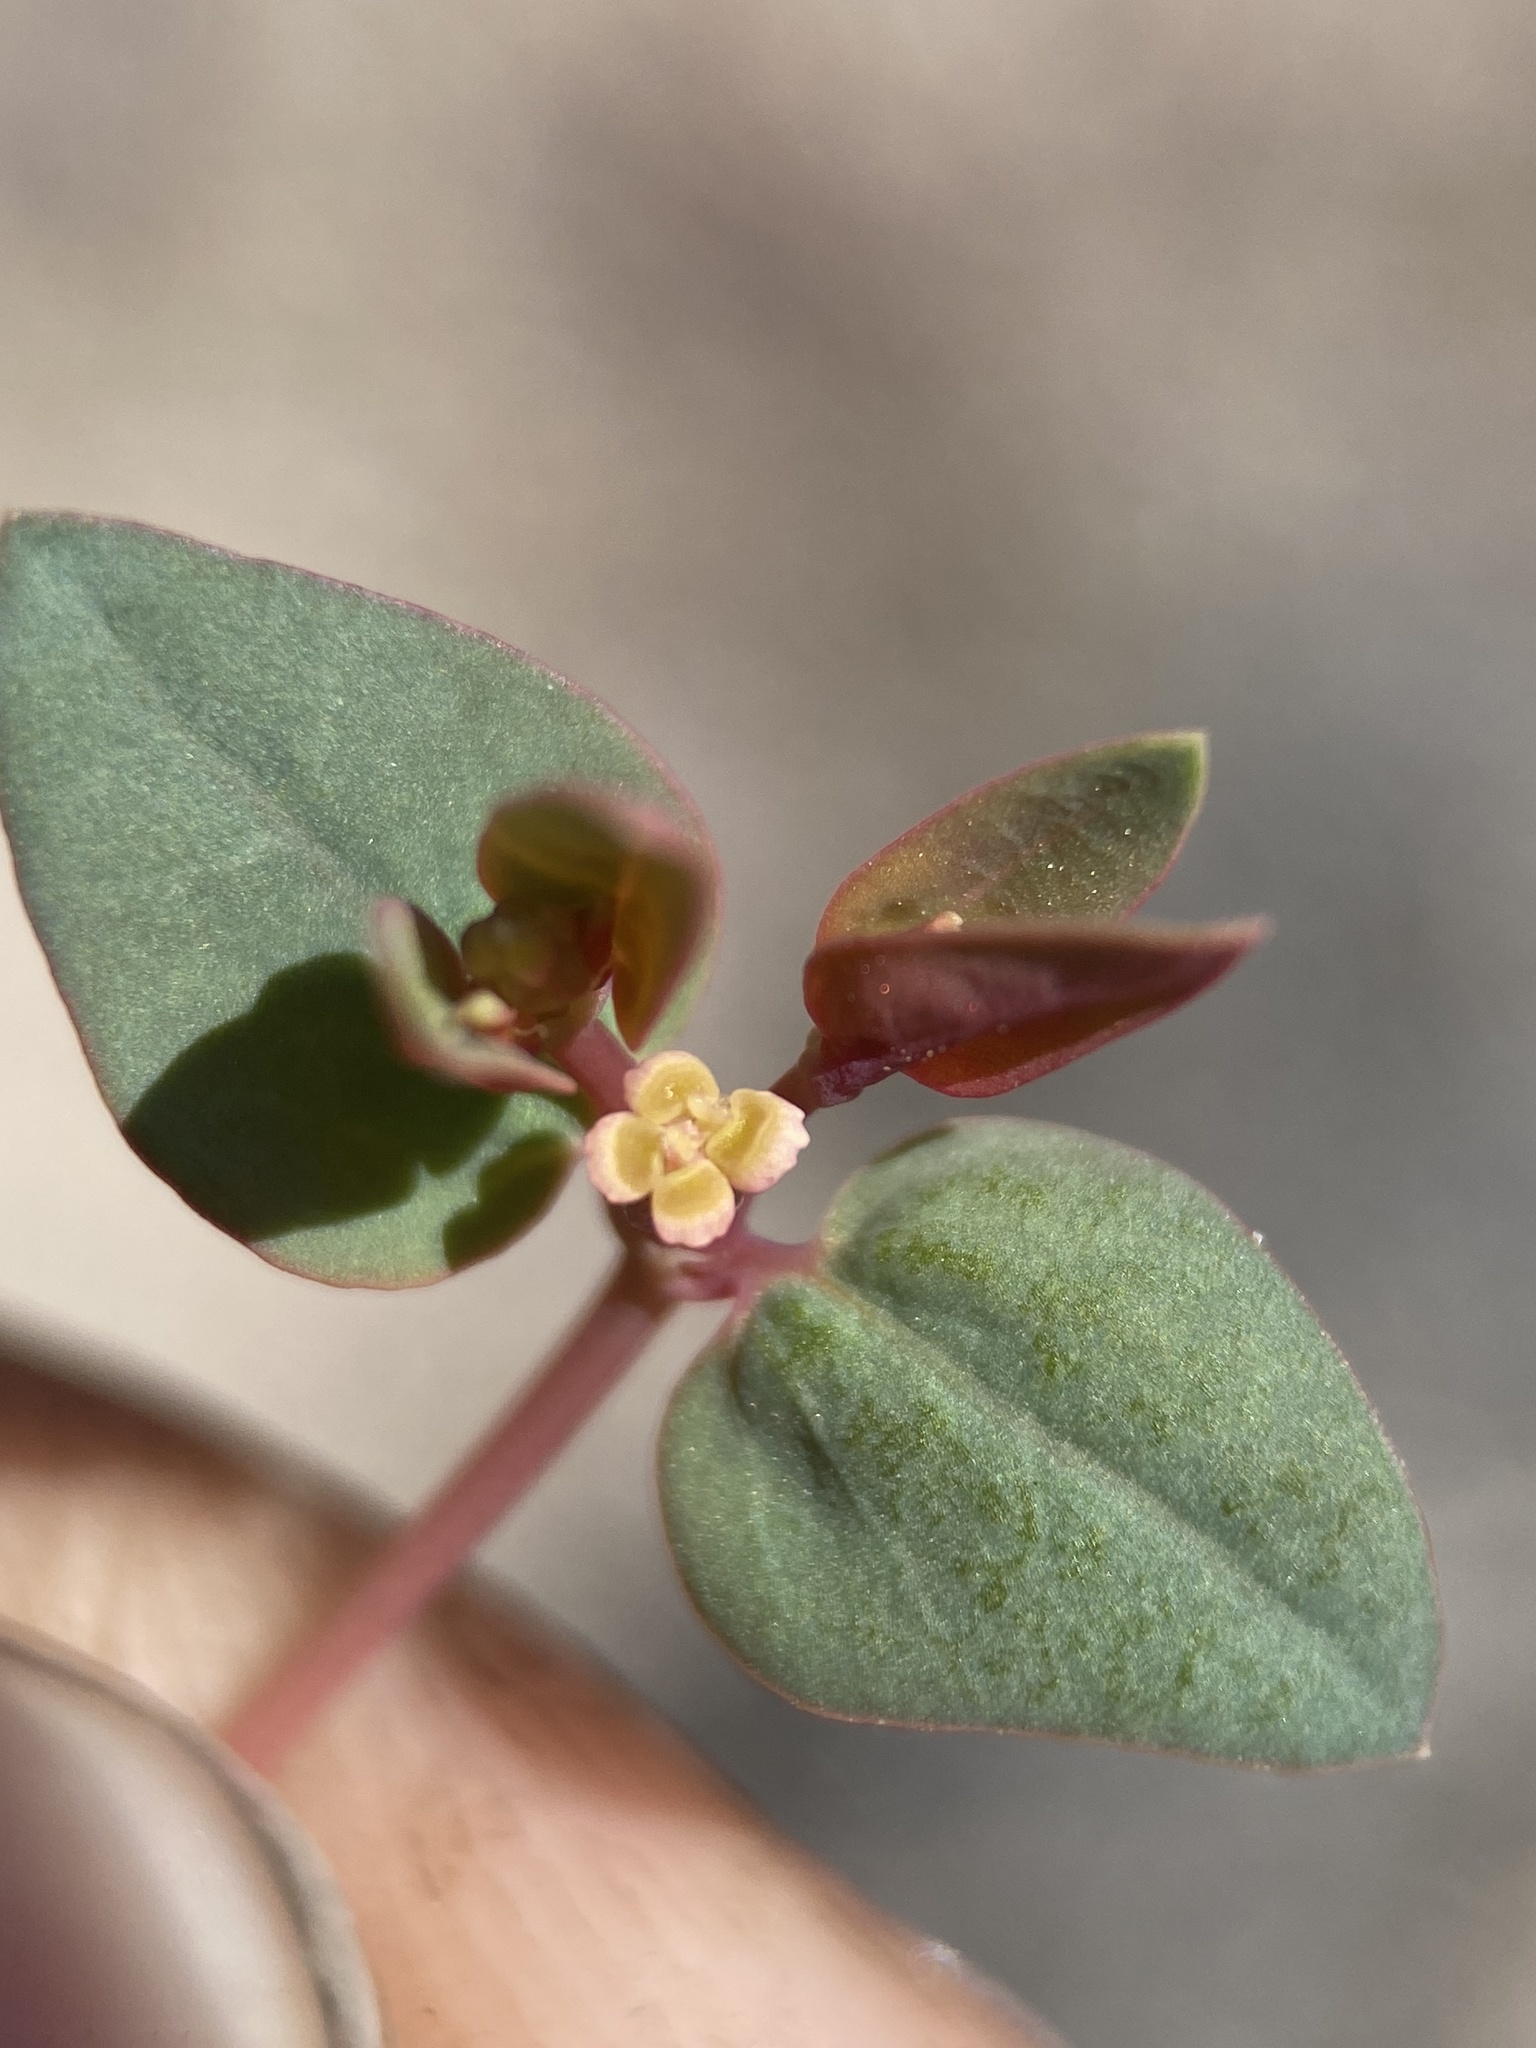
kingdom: Plantae
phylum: Tracheophyta
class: Magnoliopsida
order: Malpighiales
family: Euphorbiaceae
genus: Euphorbia
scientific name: Euphorbia fendleri
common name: Fendler's euphorbia
